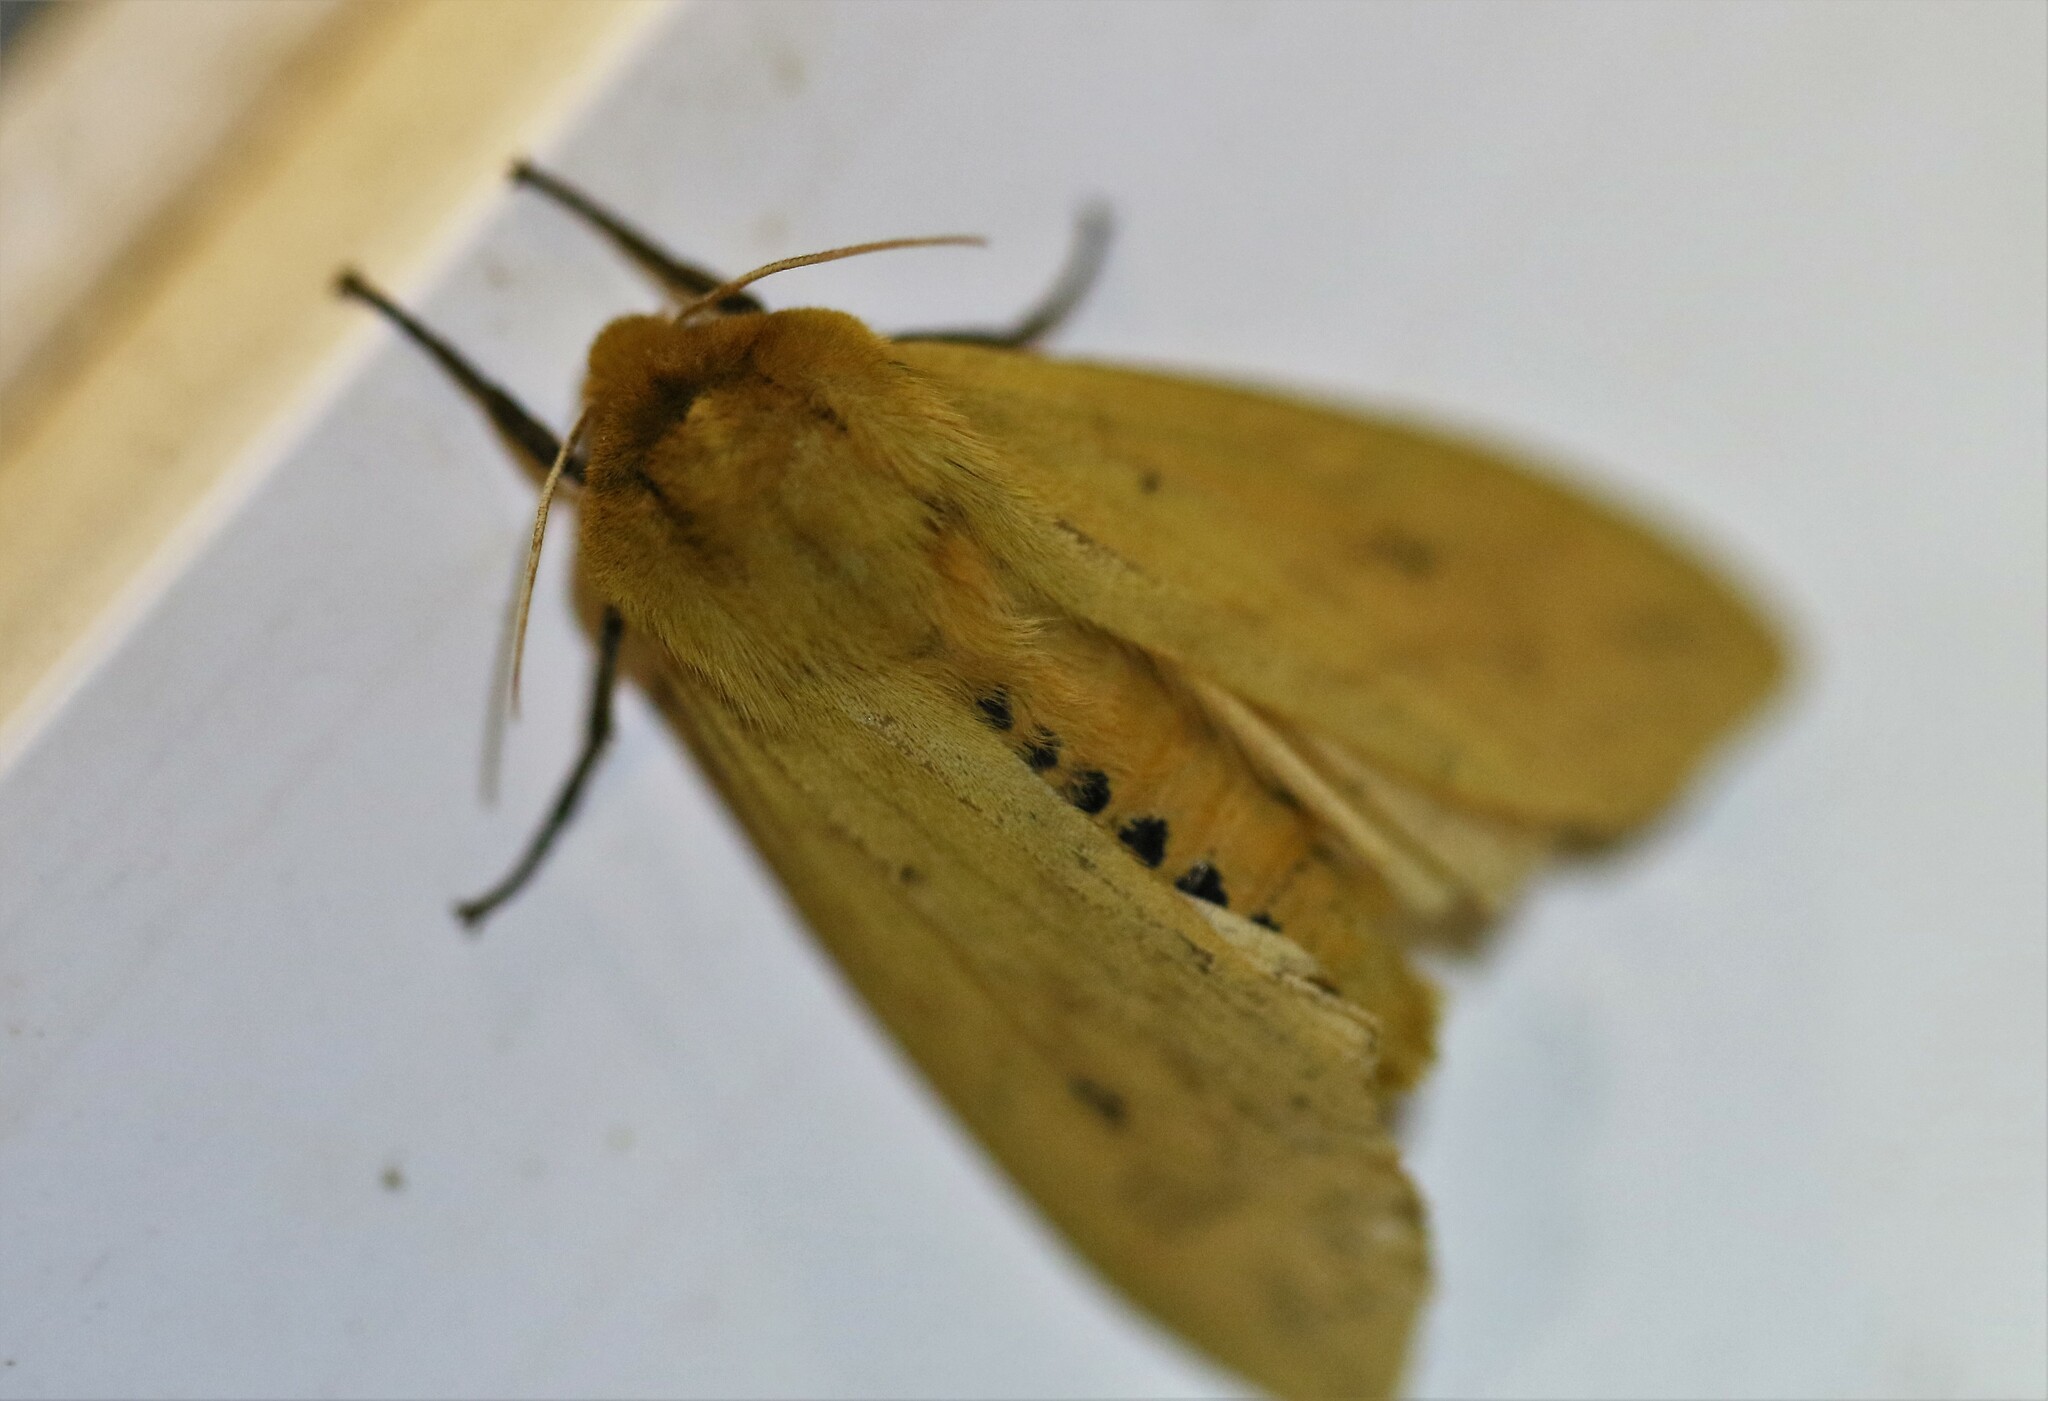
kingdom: Animalia
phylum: Arthropoda
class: Insecta
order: Lepidoptera
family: Erebidae
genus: Pyrrharctia
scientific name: Pyrrharctia isabella
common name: Isabella tiger moth
